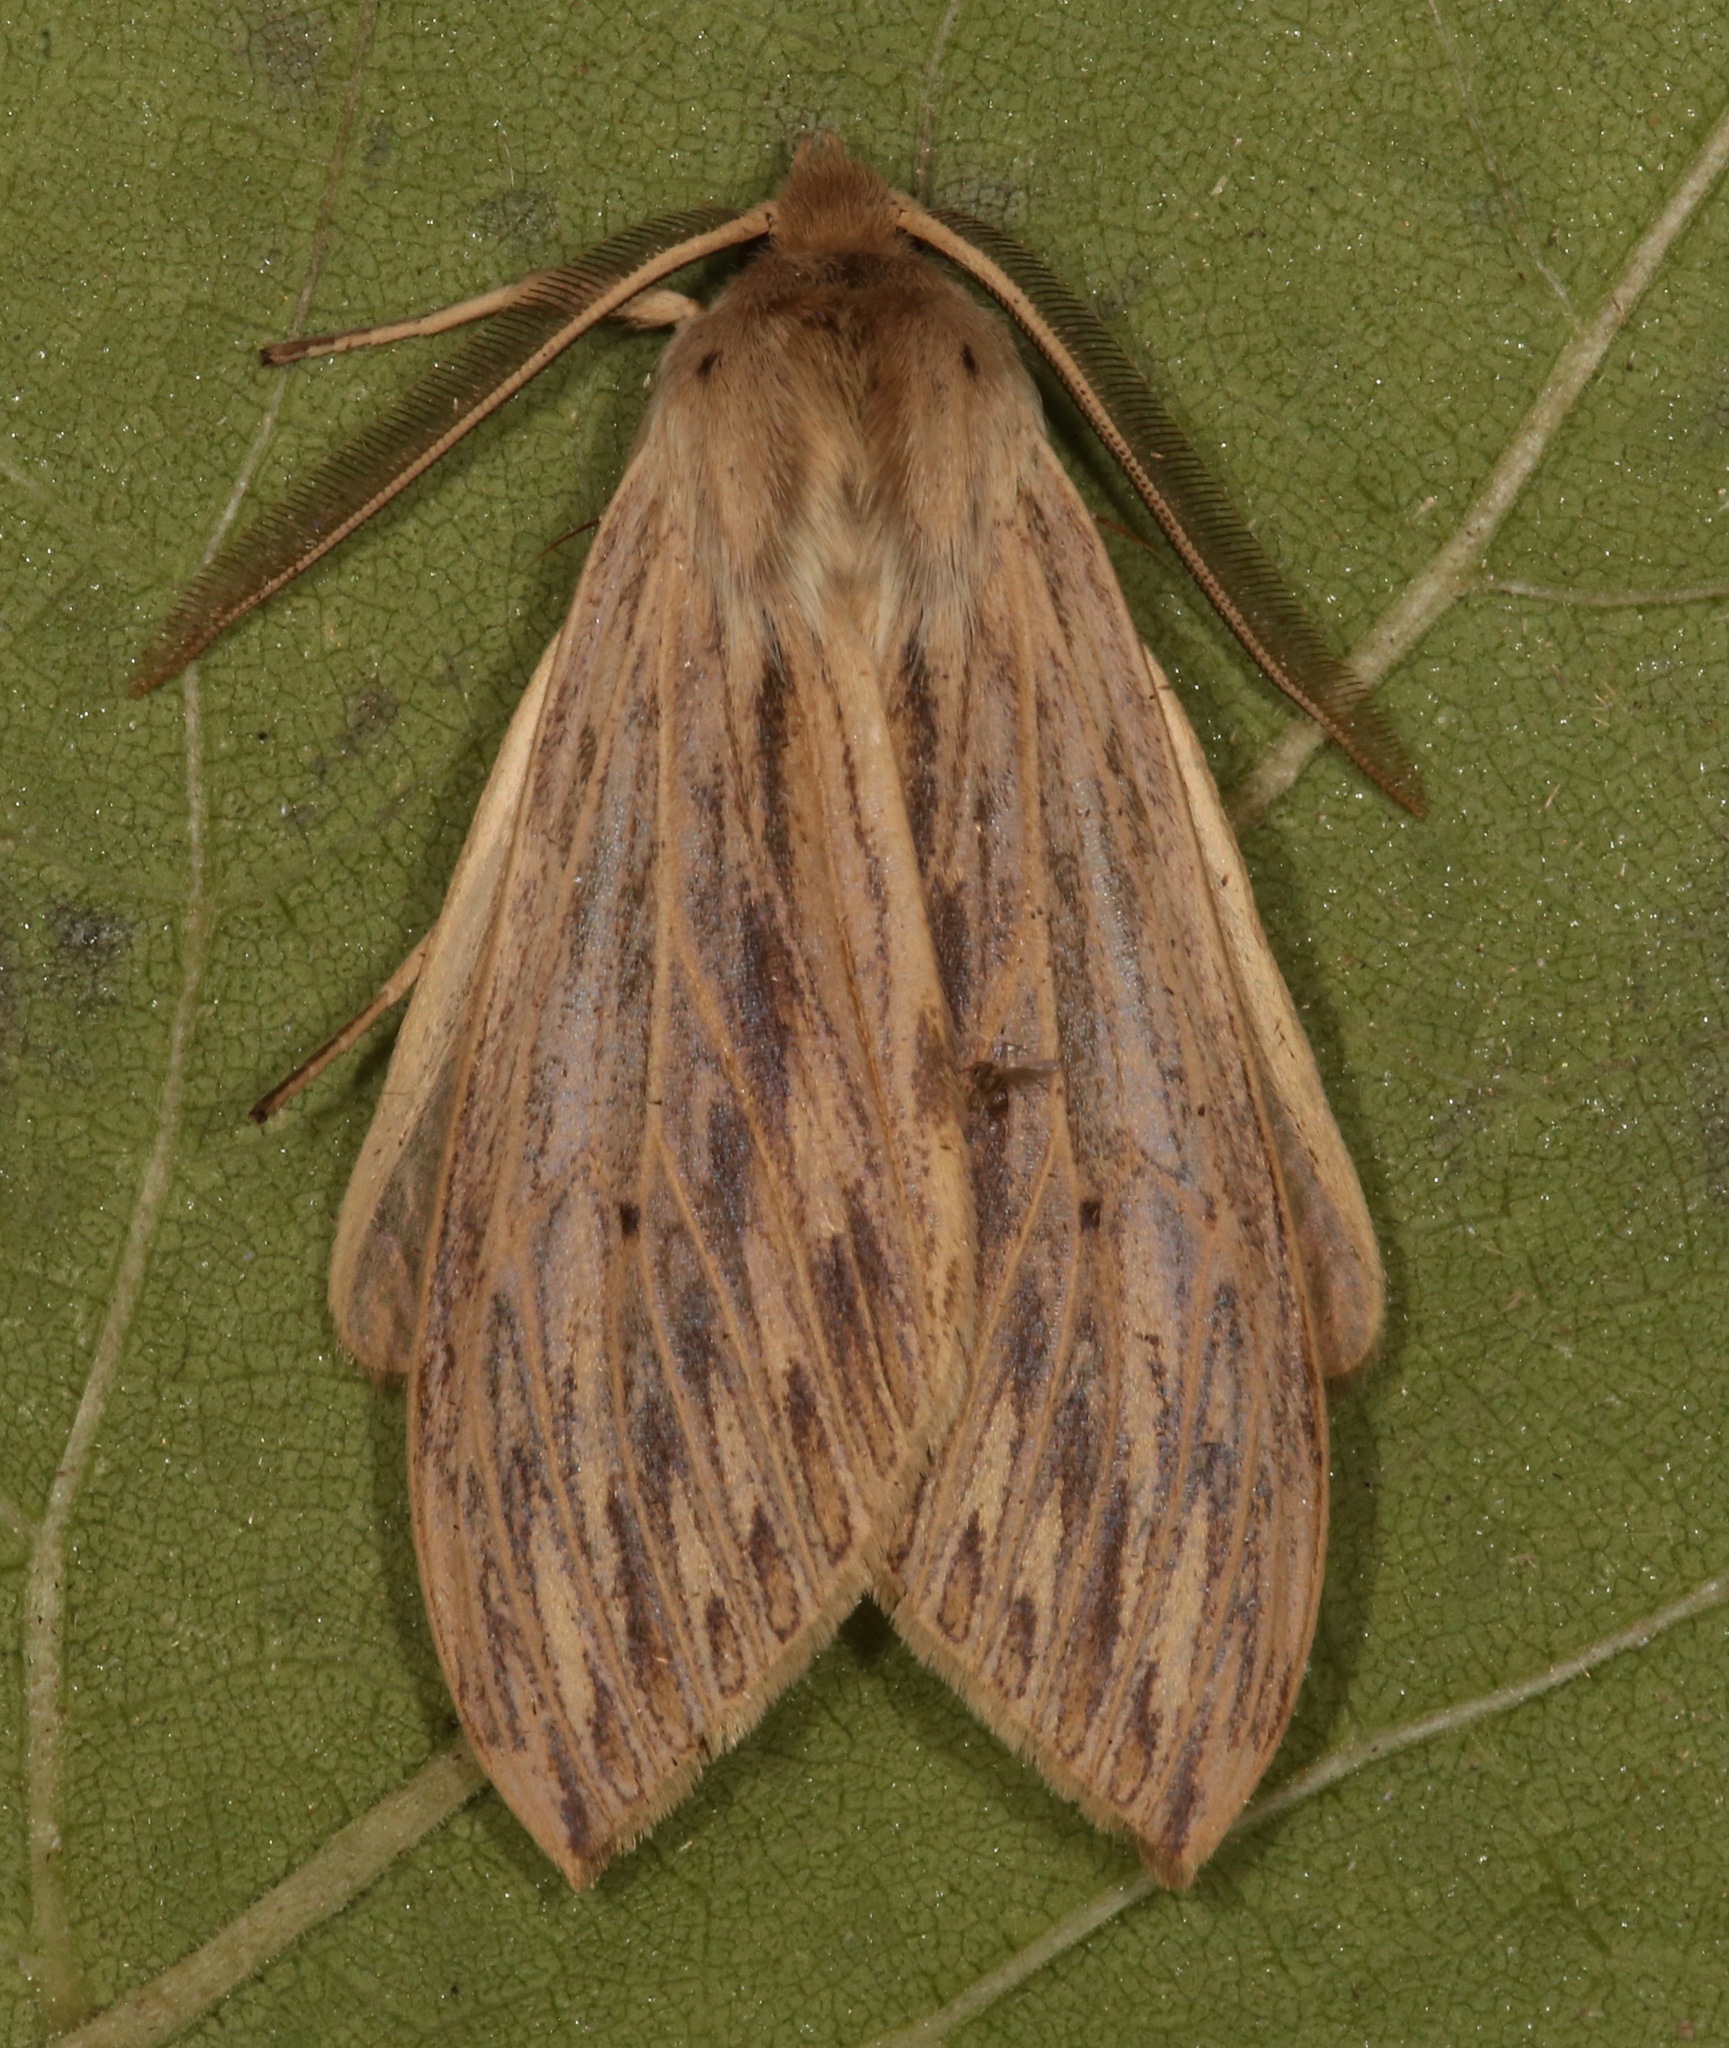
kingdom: Animalia
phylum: Arthropoda
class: Insecta
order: Lepidoptera
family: Erebidae
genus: Leucanopsis
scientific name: Leucanopsis lurida
